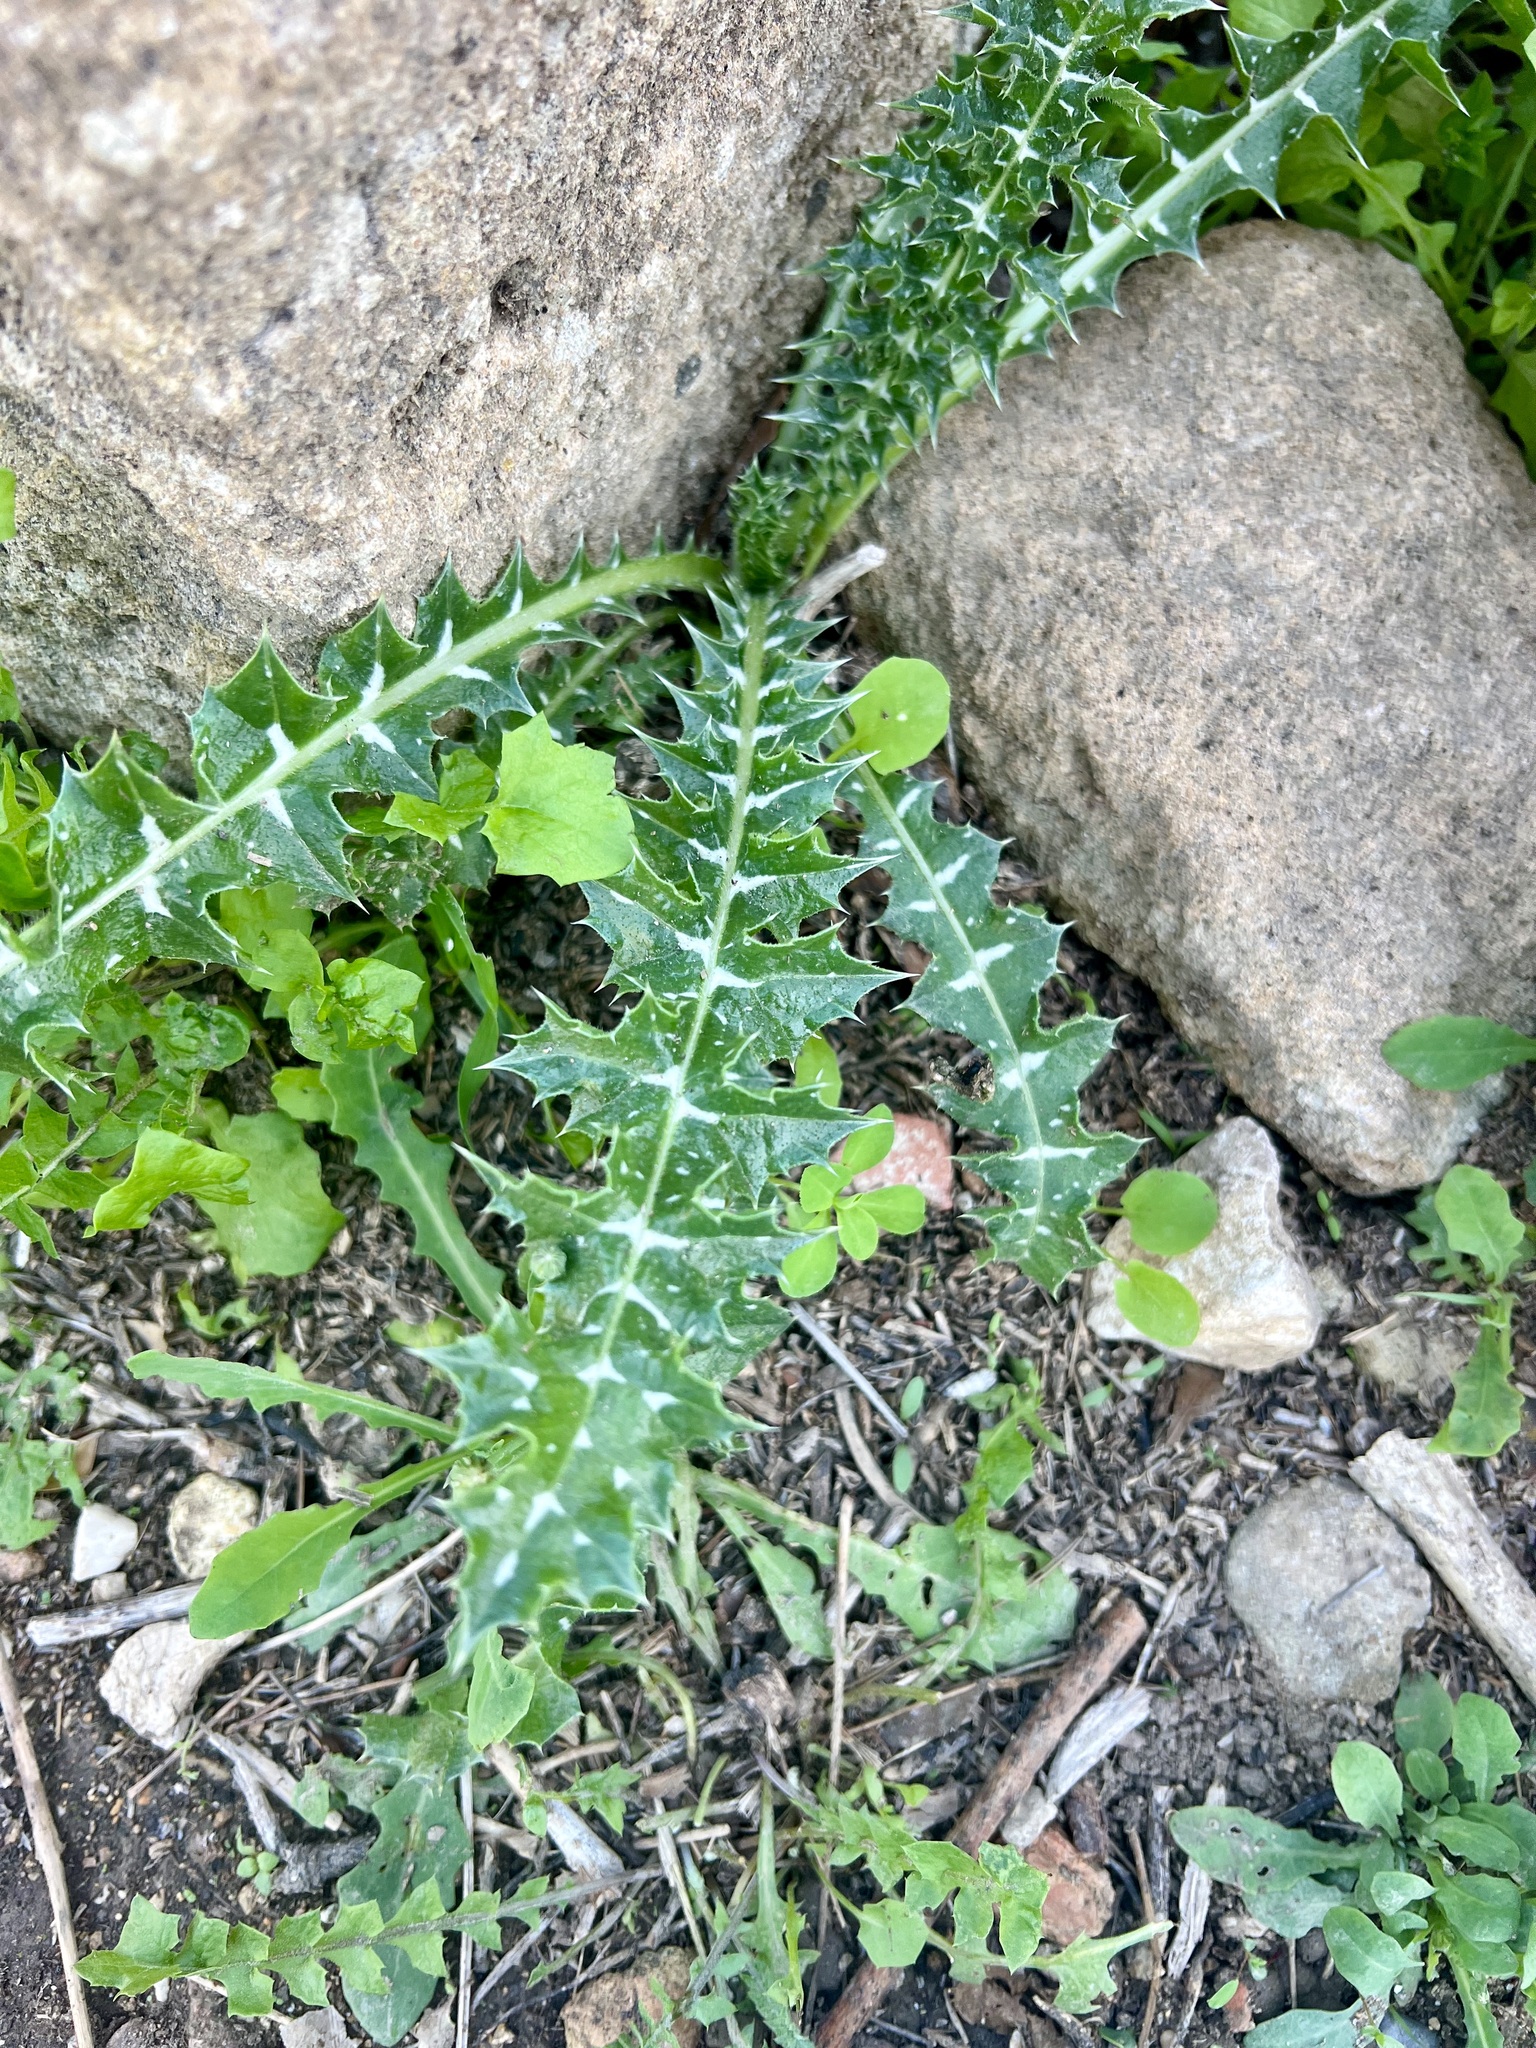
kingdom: Plantae
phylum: Tracheophyta
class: Magnoliopsida
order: Asterales
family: Asteraceae
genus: Galactites
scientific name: Galactites tomentosa
